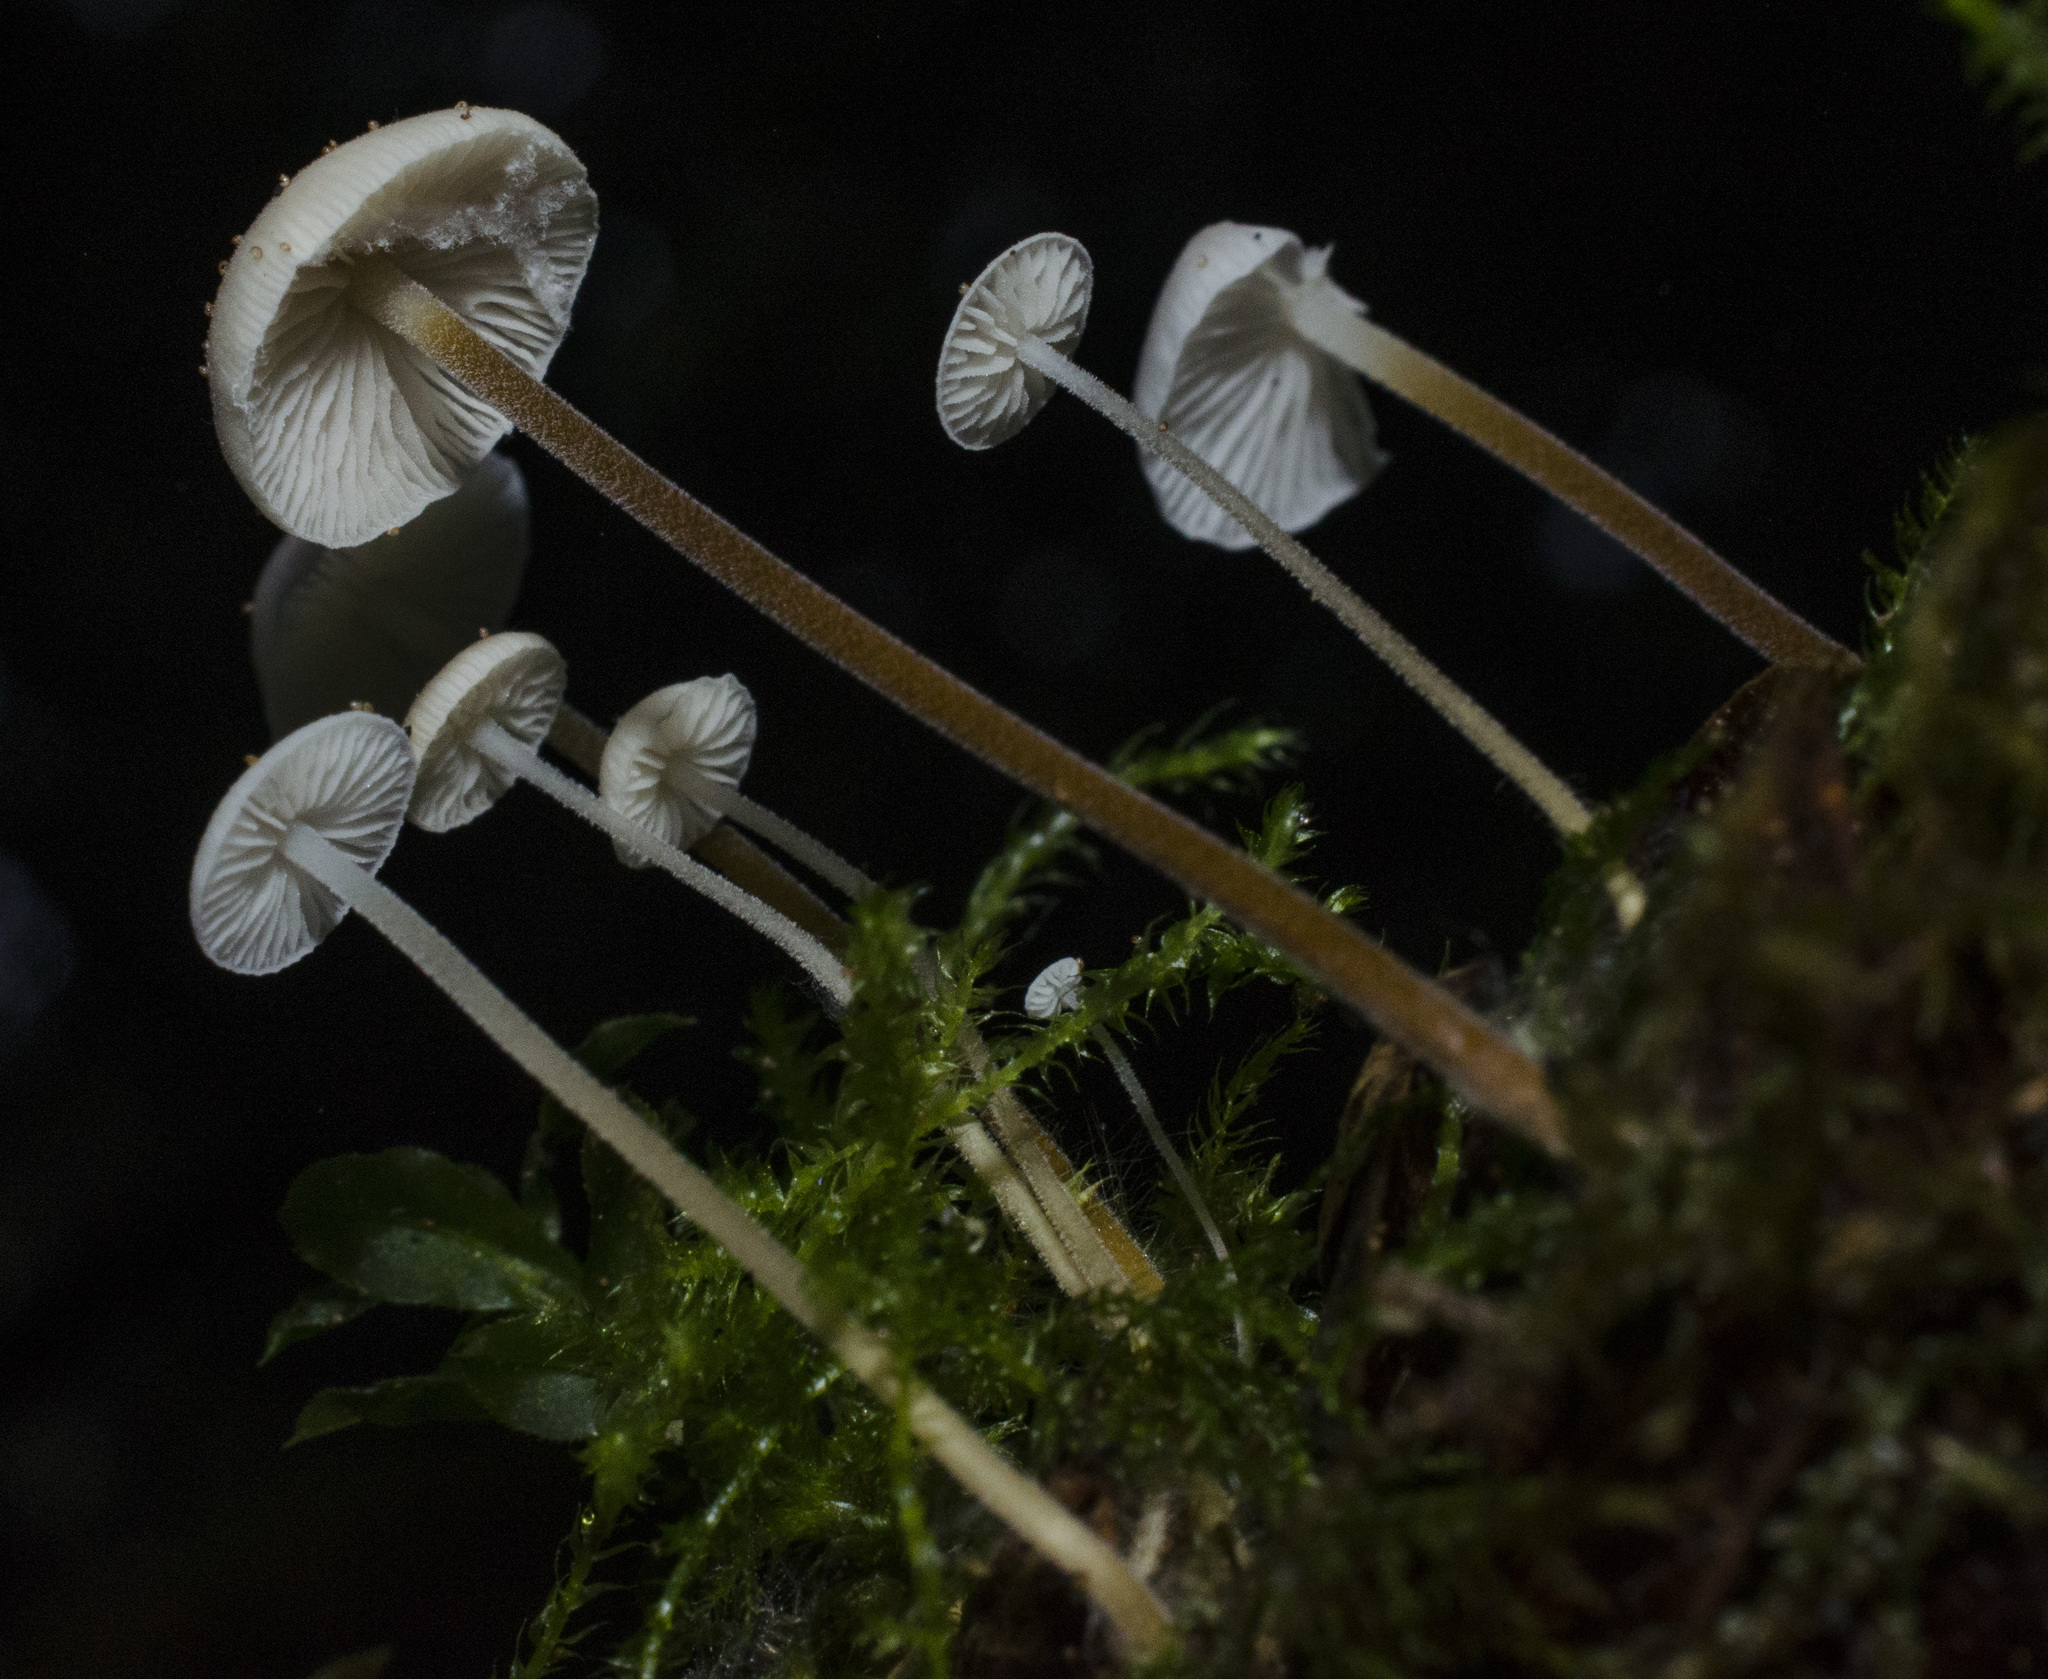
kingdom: Fungi
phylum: Basidiomycota
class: Agaricomycetes
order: Agaricales
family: Physalacriaceae
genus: Strobilurus
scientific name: Strobilurus trullisatus
